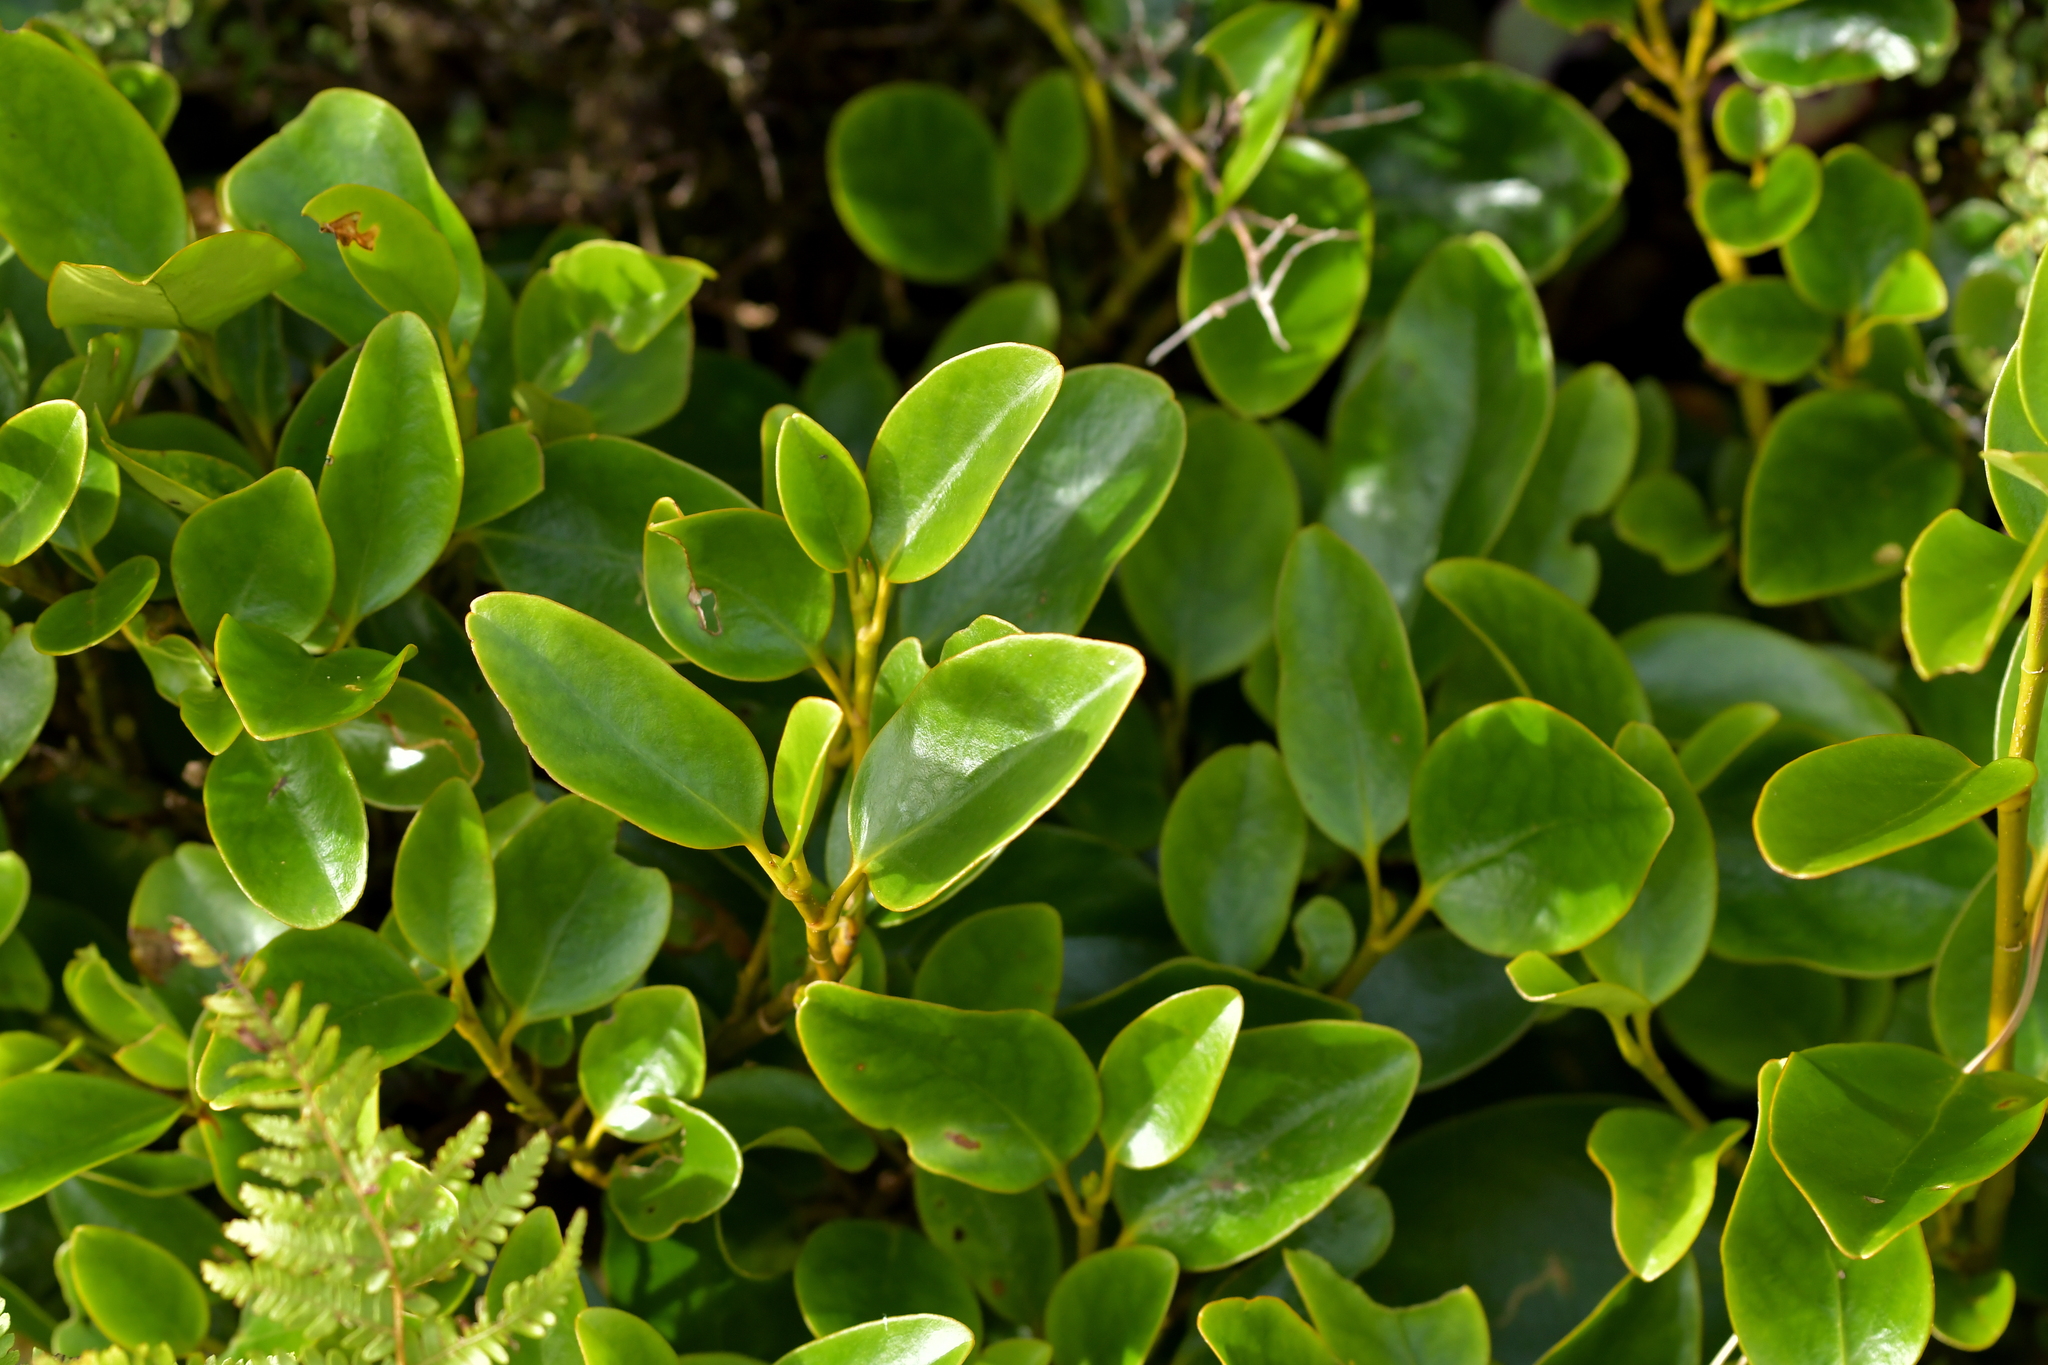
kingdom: Plantae
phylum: Tracheophyta
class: Magnoliopsida
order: Apiales
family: Griseliniaceae
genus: Griselinia
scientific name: Griselinia littoralis
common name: New zealand broadleaf
